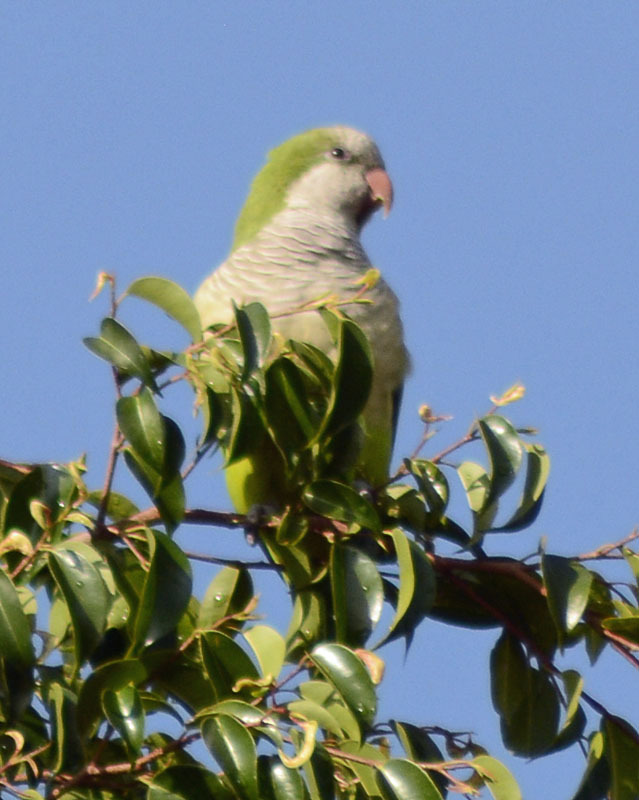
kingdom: Animalia
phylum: Chordata
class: Aves
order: Psittaciformes
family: Psittacidae
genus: Myiopsitta
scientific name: Myiopsitta monachus
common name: Monk parakeet
